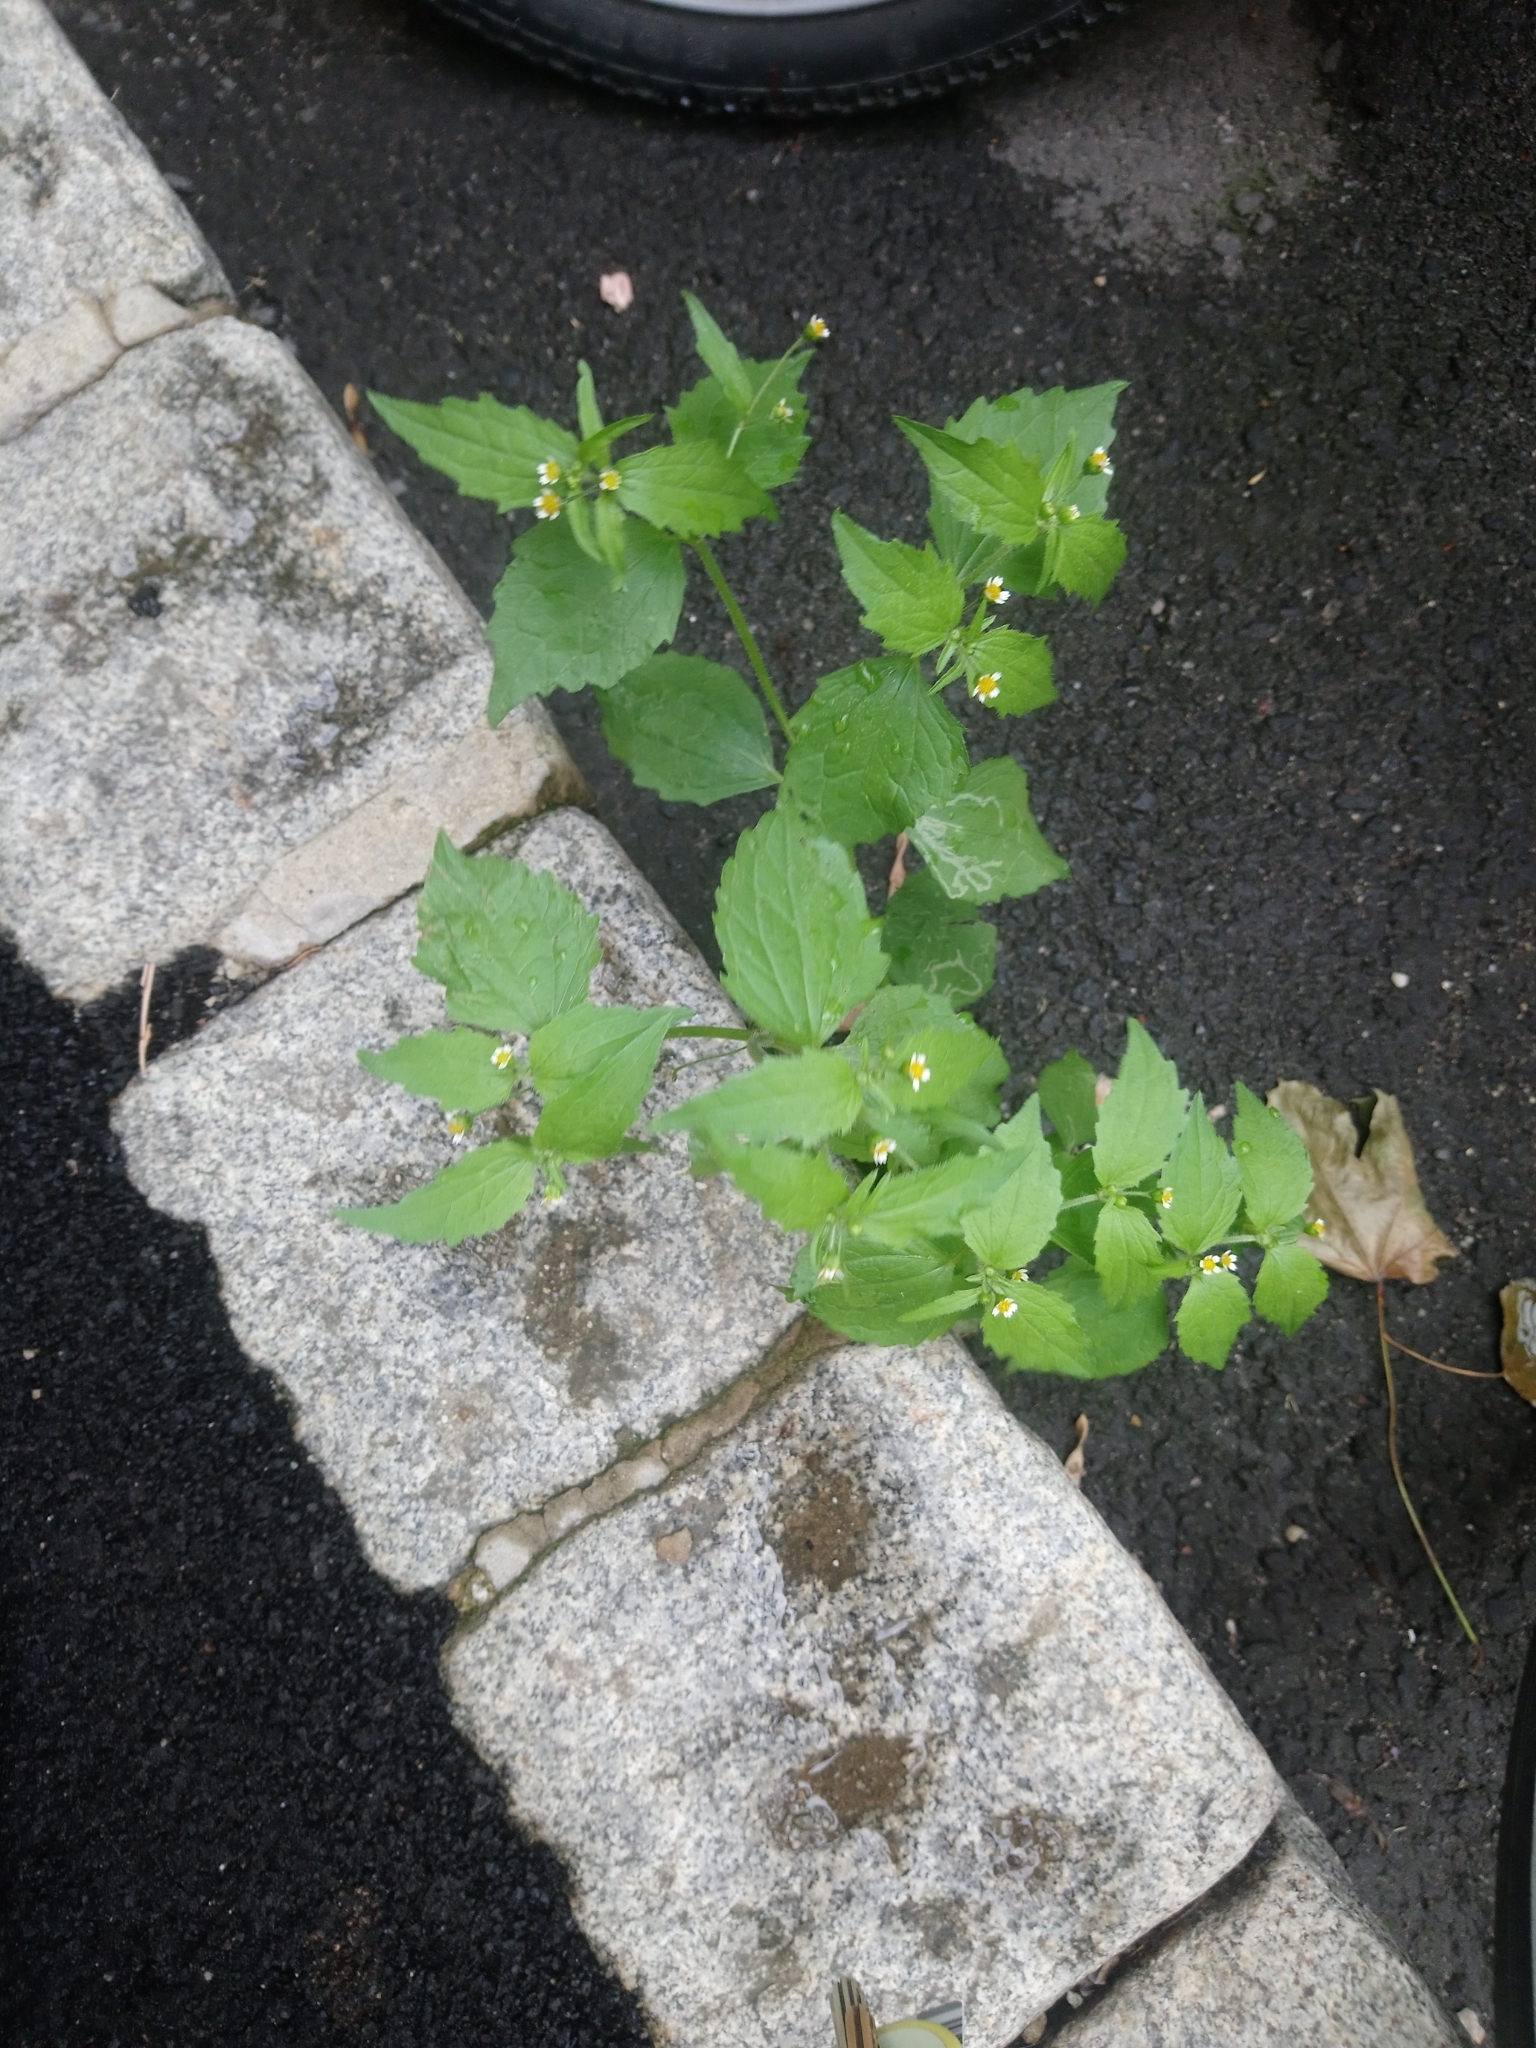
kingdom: Plantae
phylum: Tracheophyta
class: Magnoliopsida
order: Asterales
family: Asteraceae
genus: Galinsoga
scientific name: Galinsoga quadriradiata
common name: Shaggy soldier
